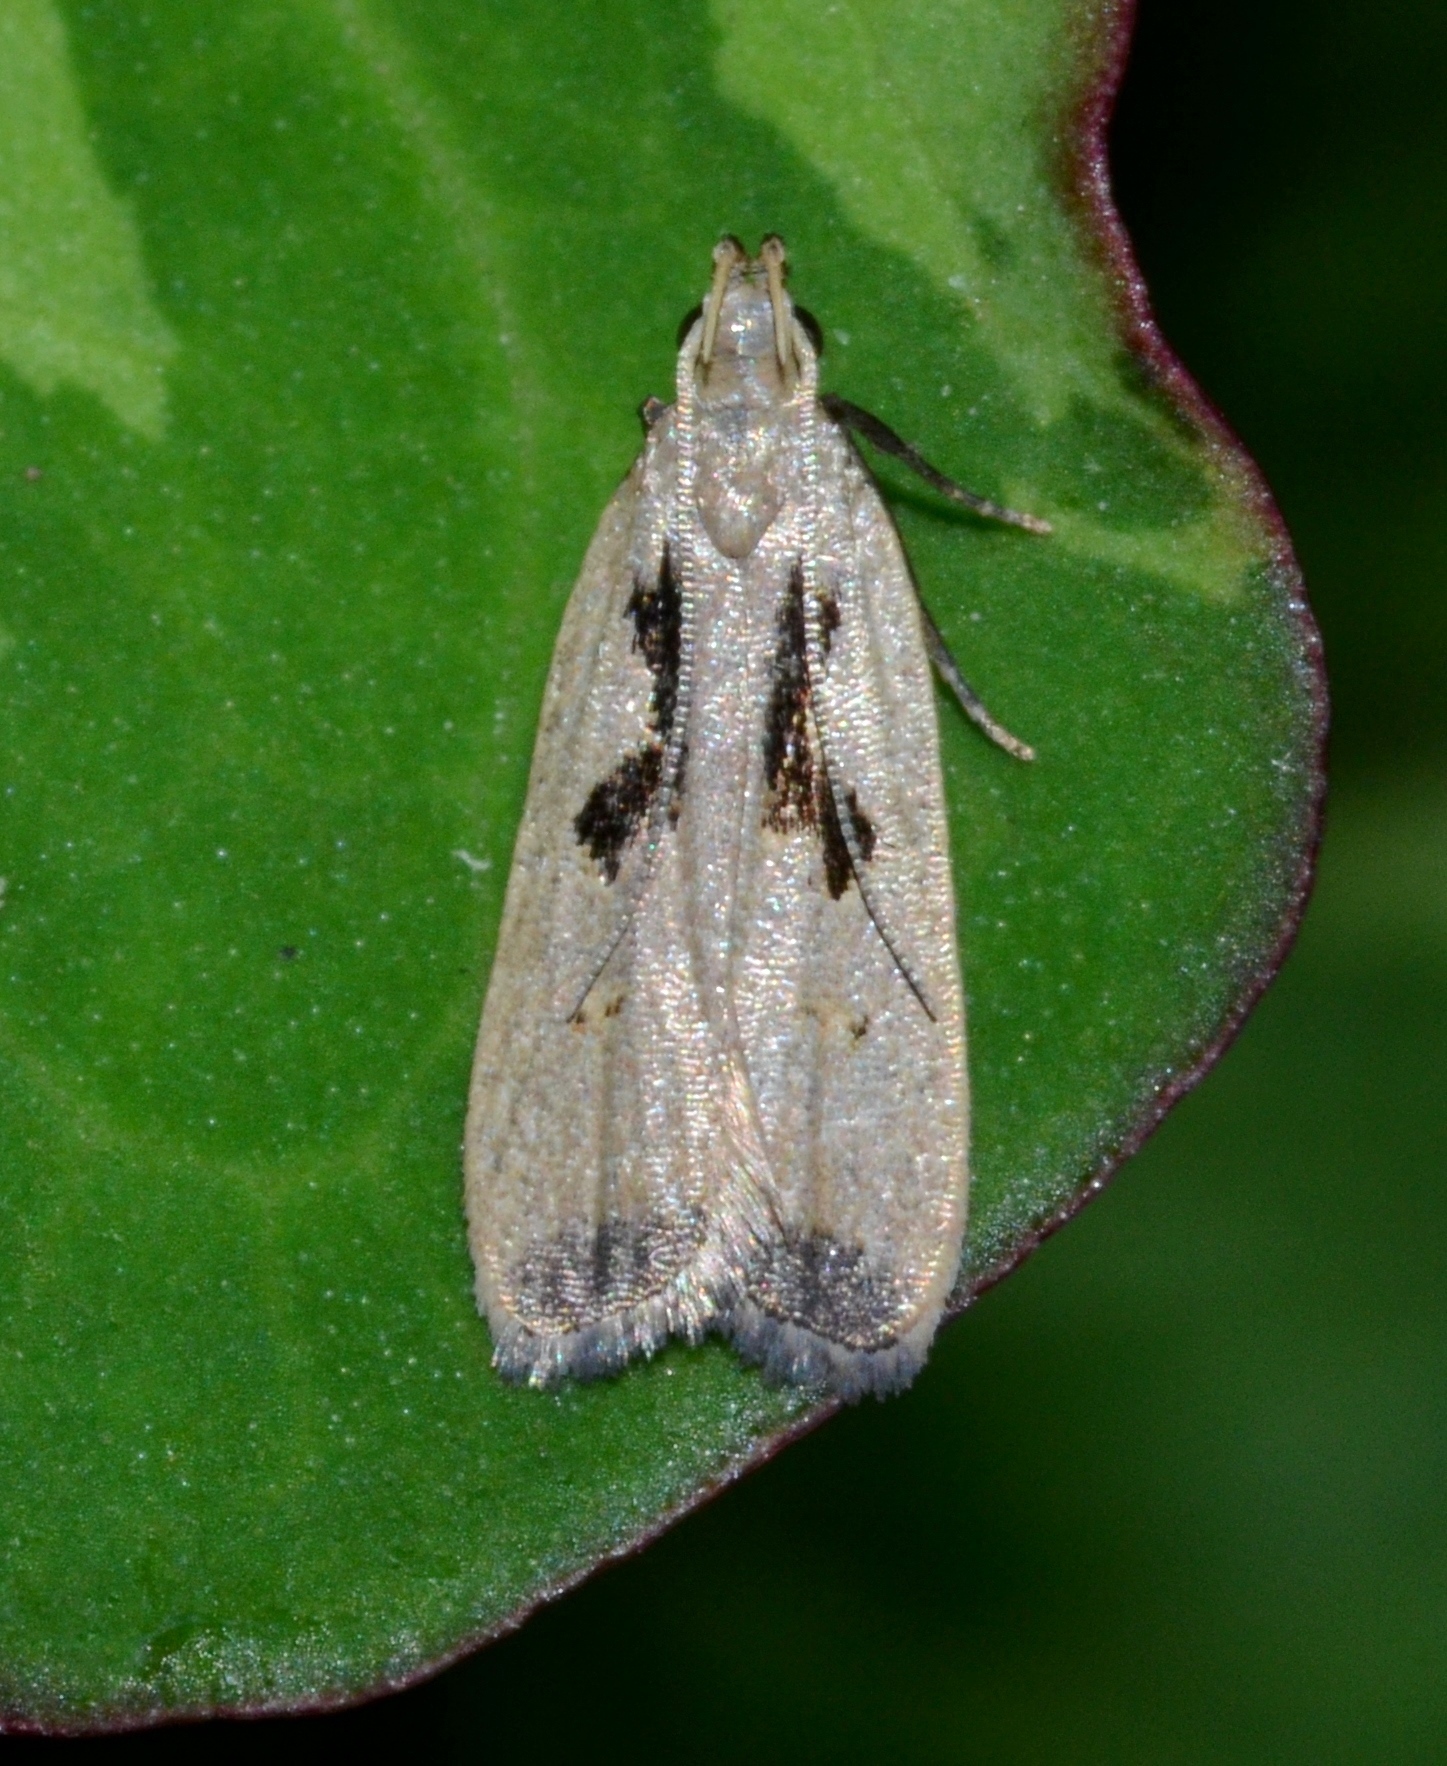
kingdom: Animalia
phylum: Arthropoda
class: Insecta
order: Lepidoptera
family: Gelechiidae
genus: Dichomeris
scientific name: Dichomeris laetitia
